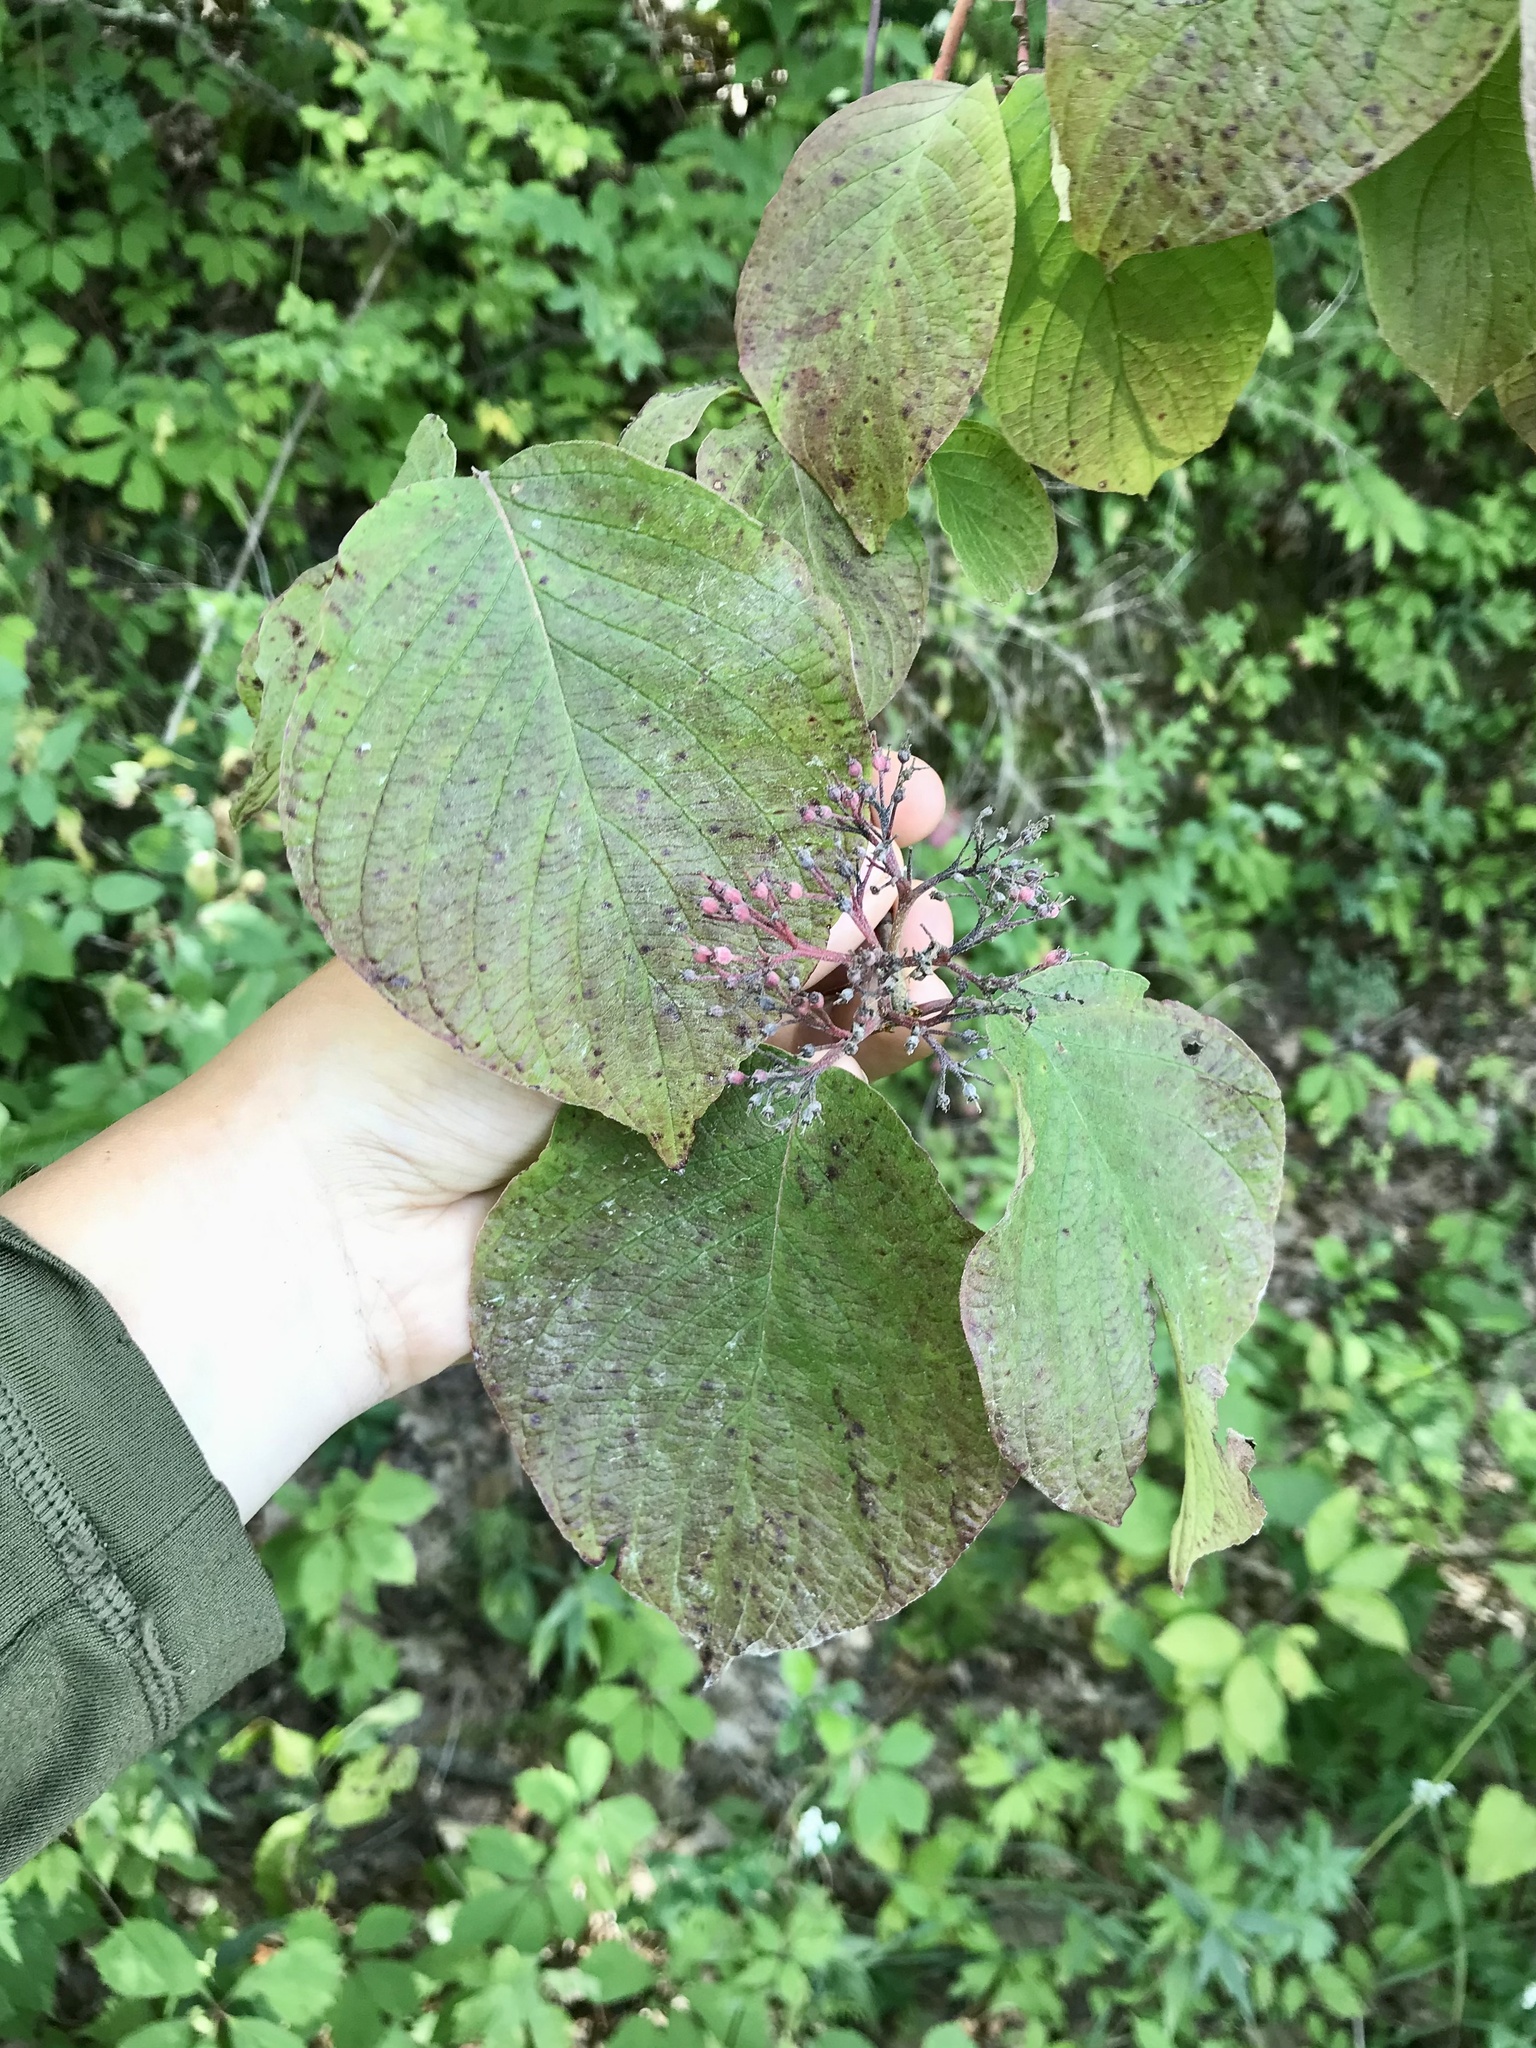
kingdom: Plantae
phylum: Tracheophyta
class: Magnoliopsida
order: Cornales
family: Cornaceae
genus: Cornus
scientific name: Cornus rugosa
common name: Round-leaf dogwood
